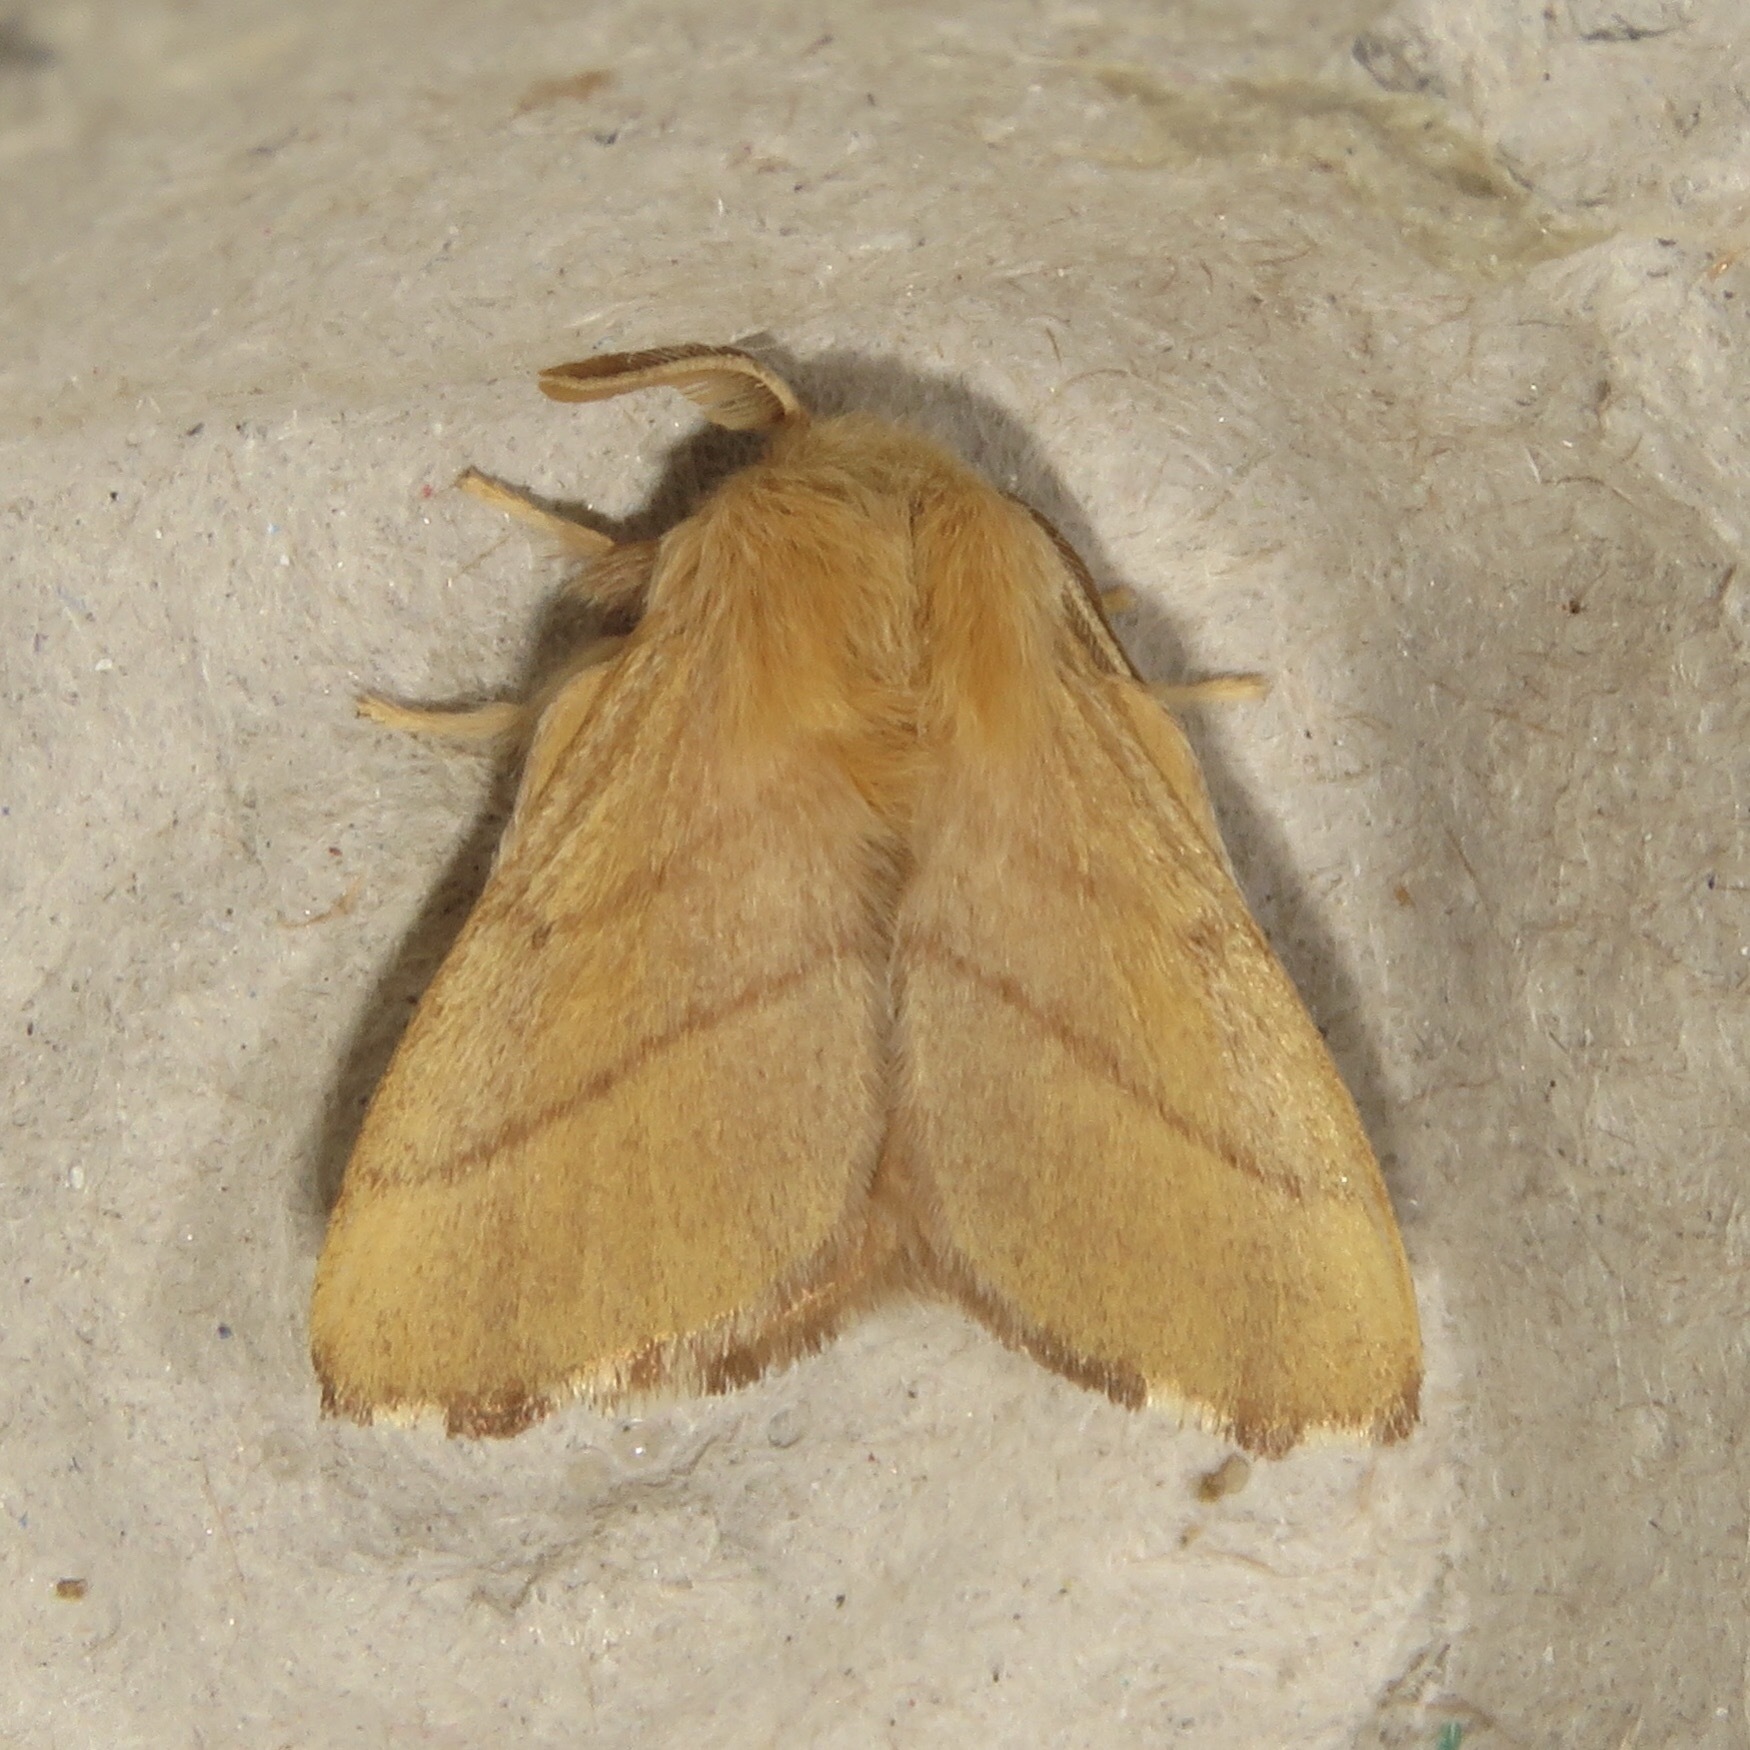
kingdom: Animalia
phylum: Arthropoda
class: Insecta
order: Lepidoptera
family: Lasiocampidae
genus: Malacosoma
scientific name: Malacosoma disstria
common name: Forest tent caterpillar
